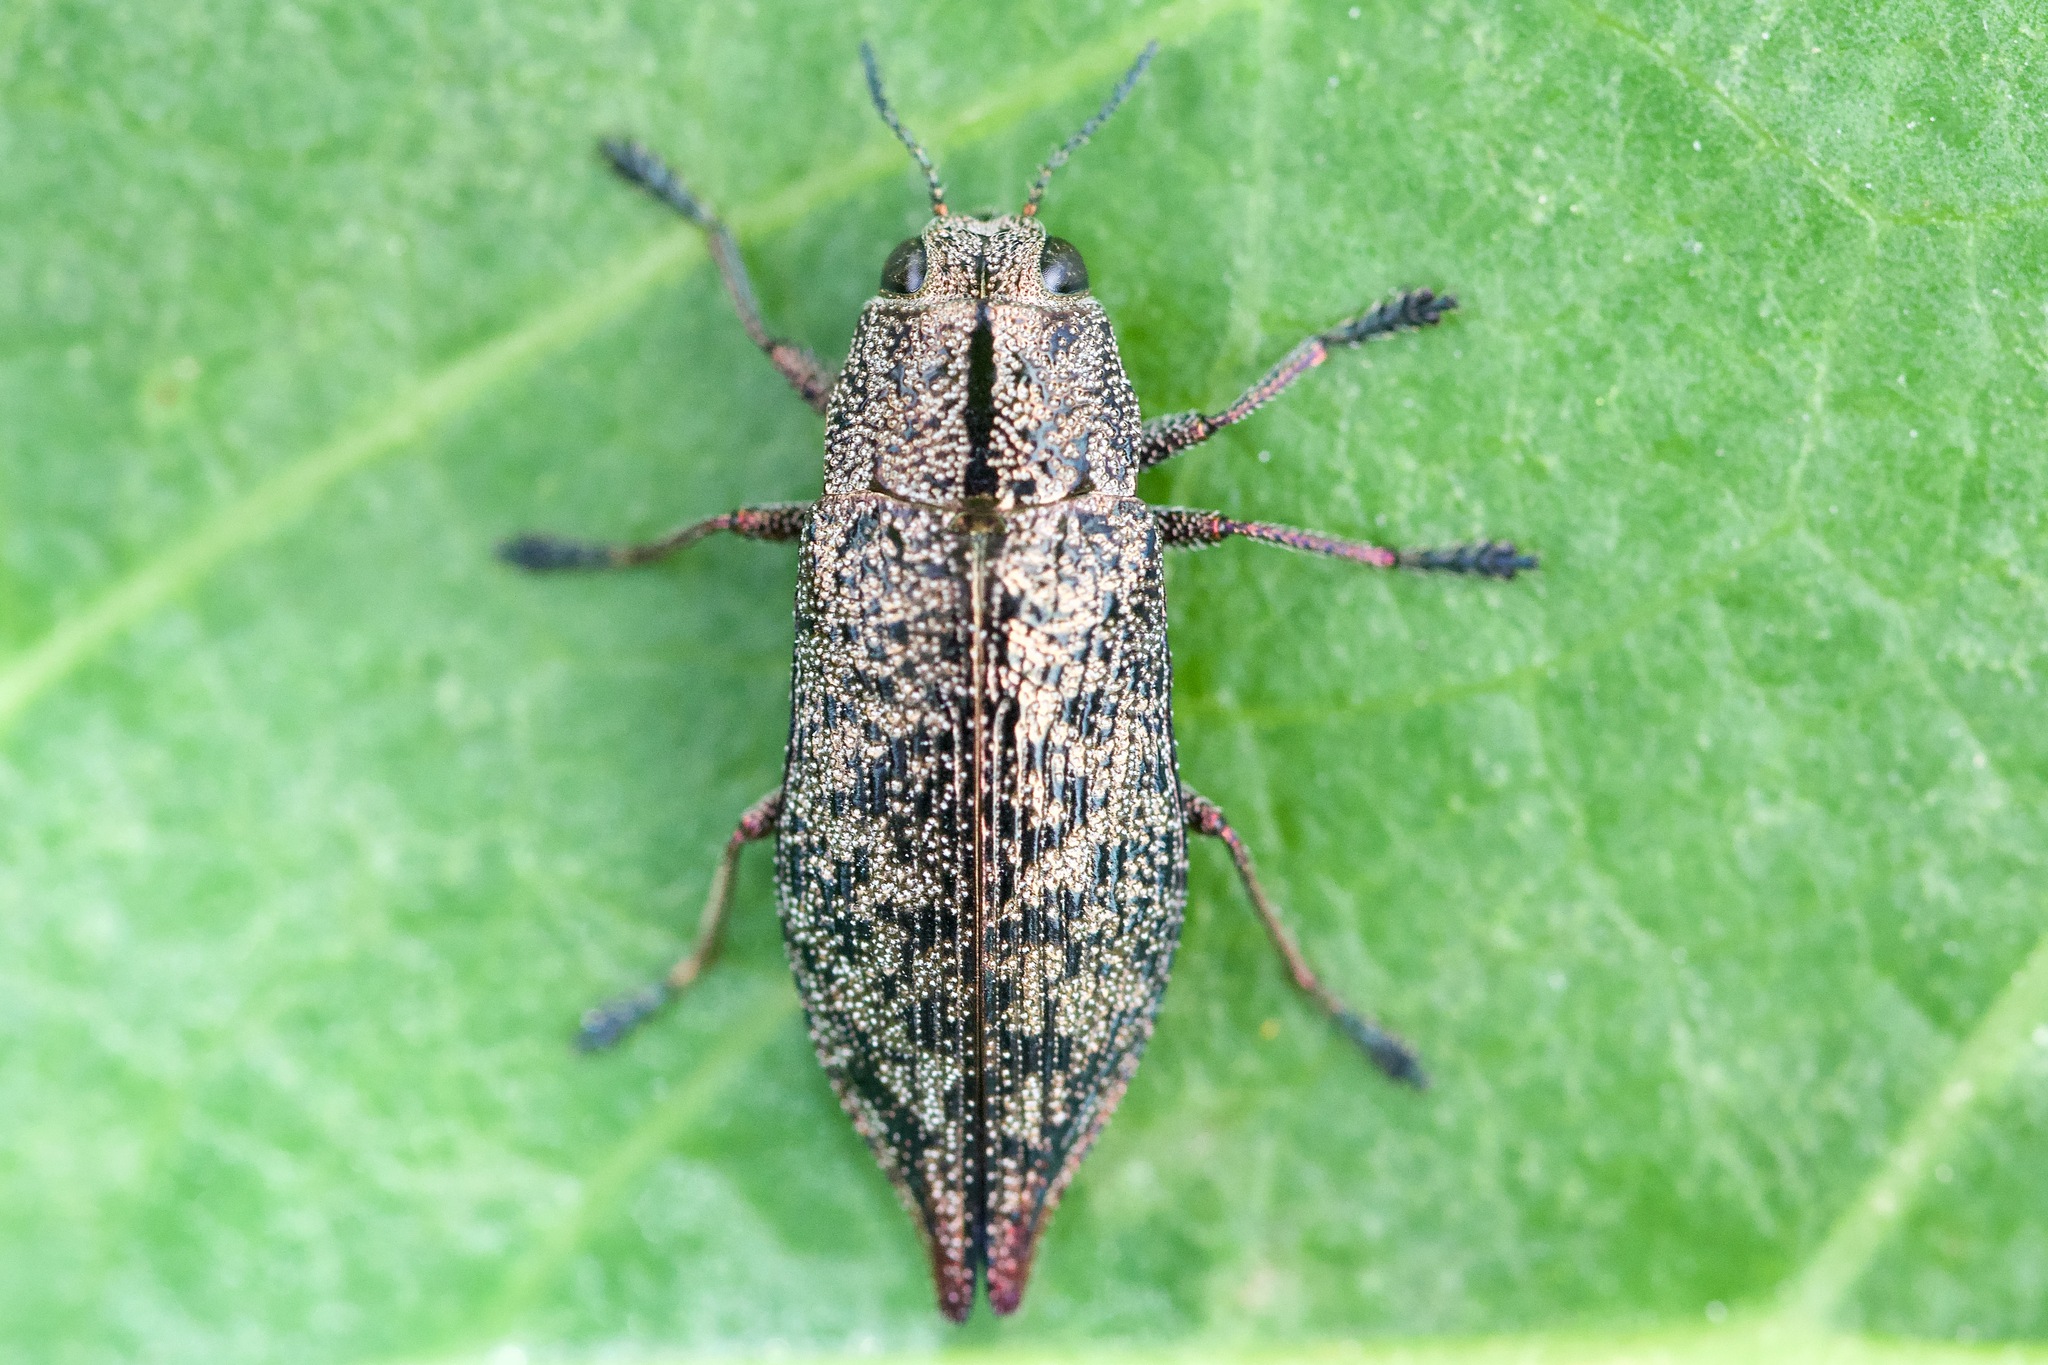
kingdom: Animalia
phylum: Arthropoda
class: Insecta
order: Coleoptera
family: Buprestidae
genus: Poecilonota
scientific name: Poecilonota cyanipes
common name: Eastern poplar buprestid beetle
